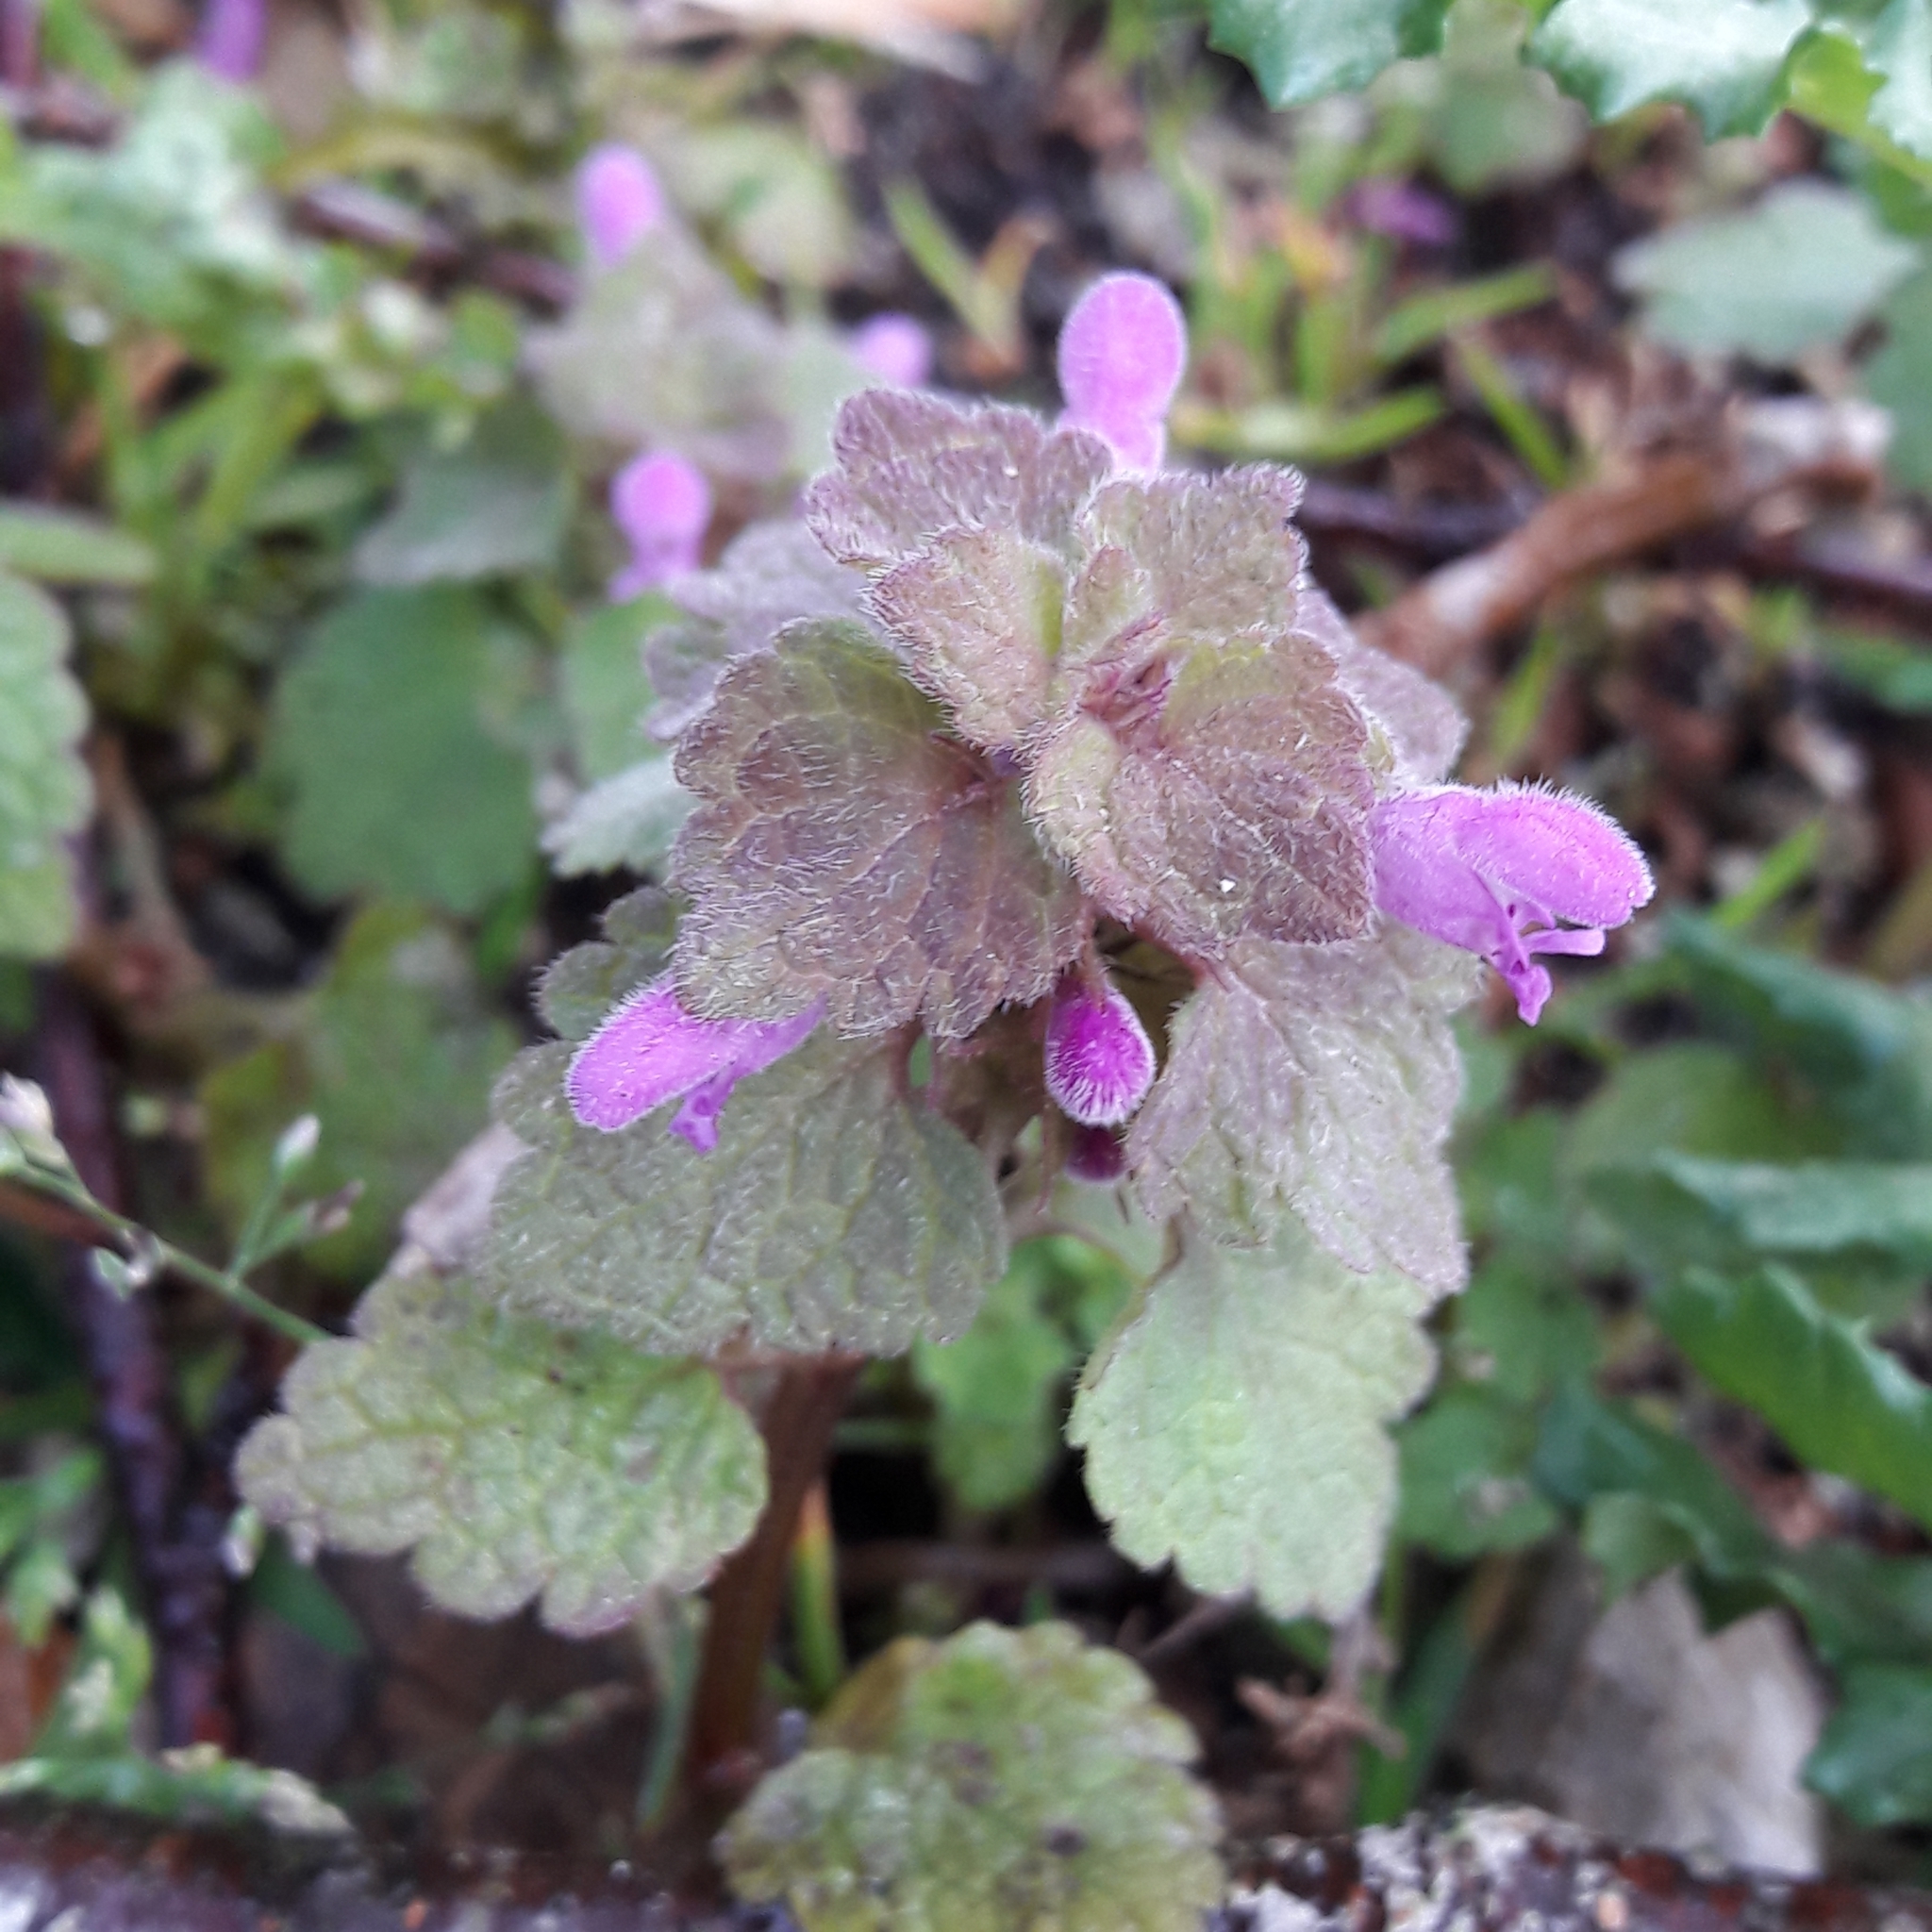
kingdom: Plantae
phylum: Tracheophyta
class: Magnoliopsida
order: Lamiales
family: Lamiaceae
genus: Lamium
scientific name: Lamium purpureum
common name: Red dead-nettle
